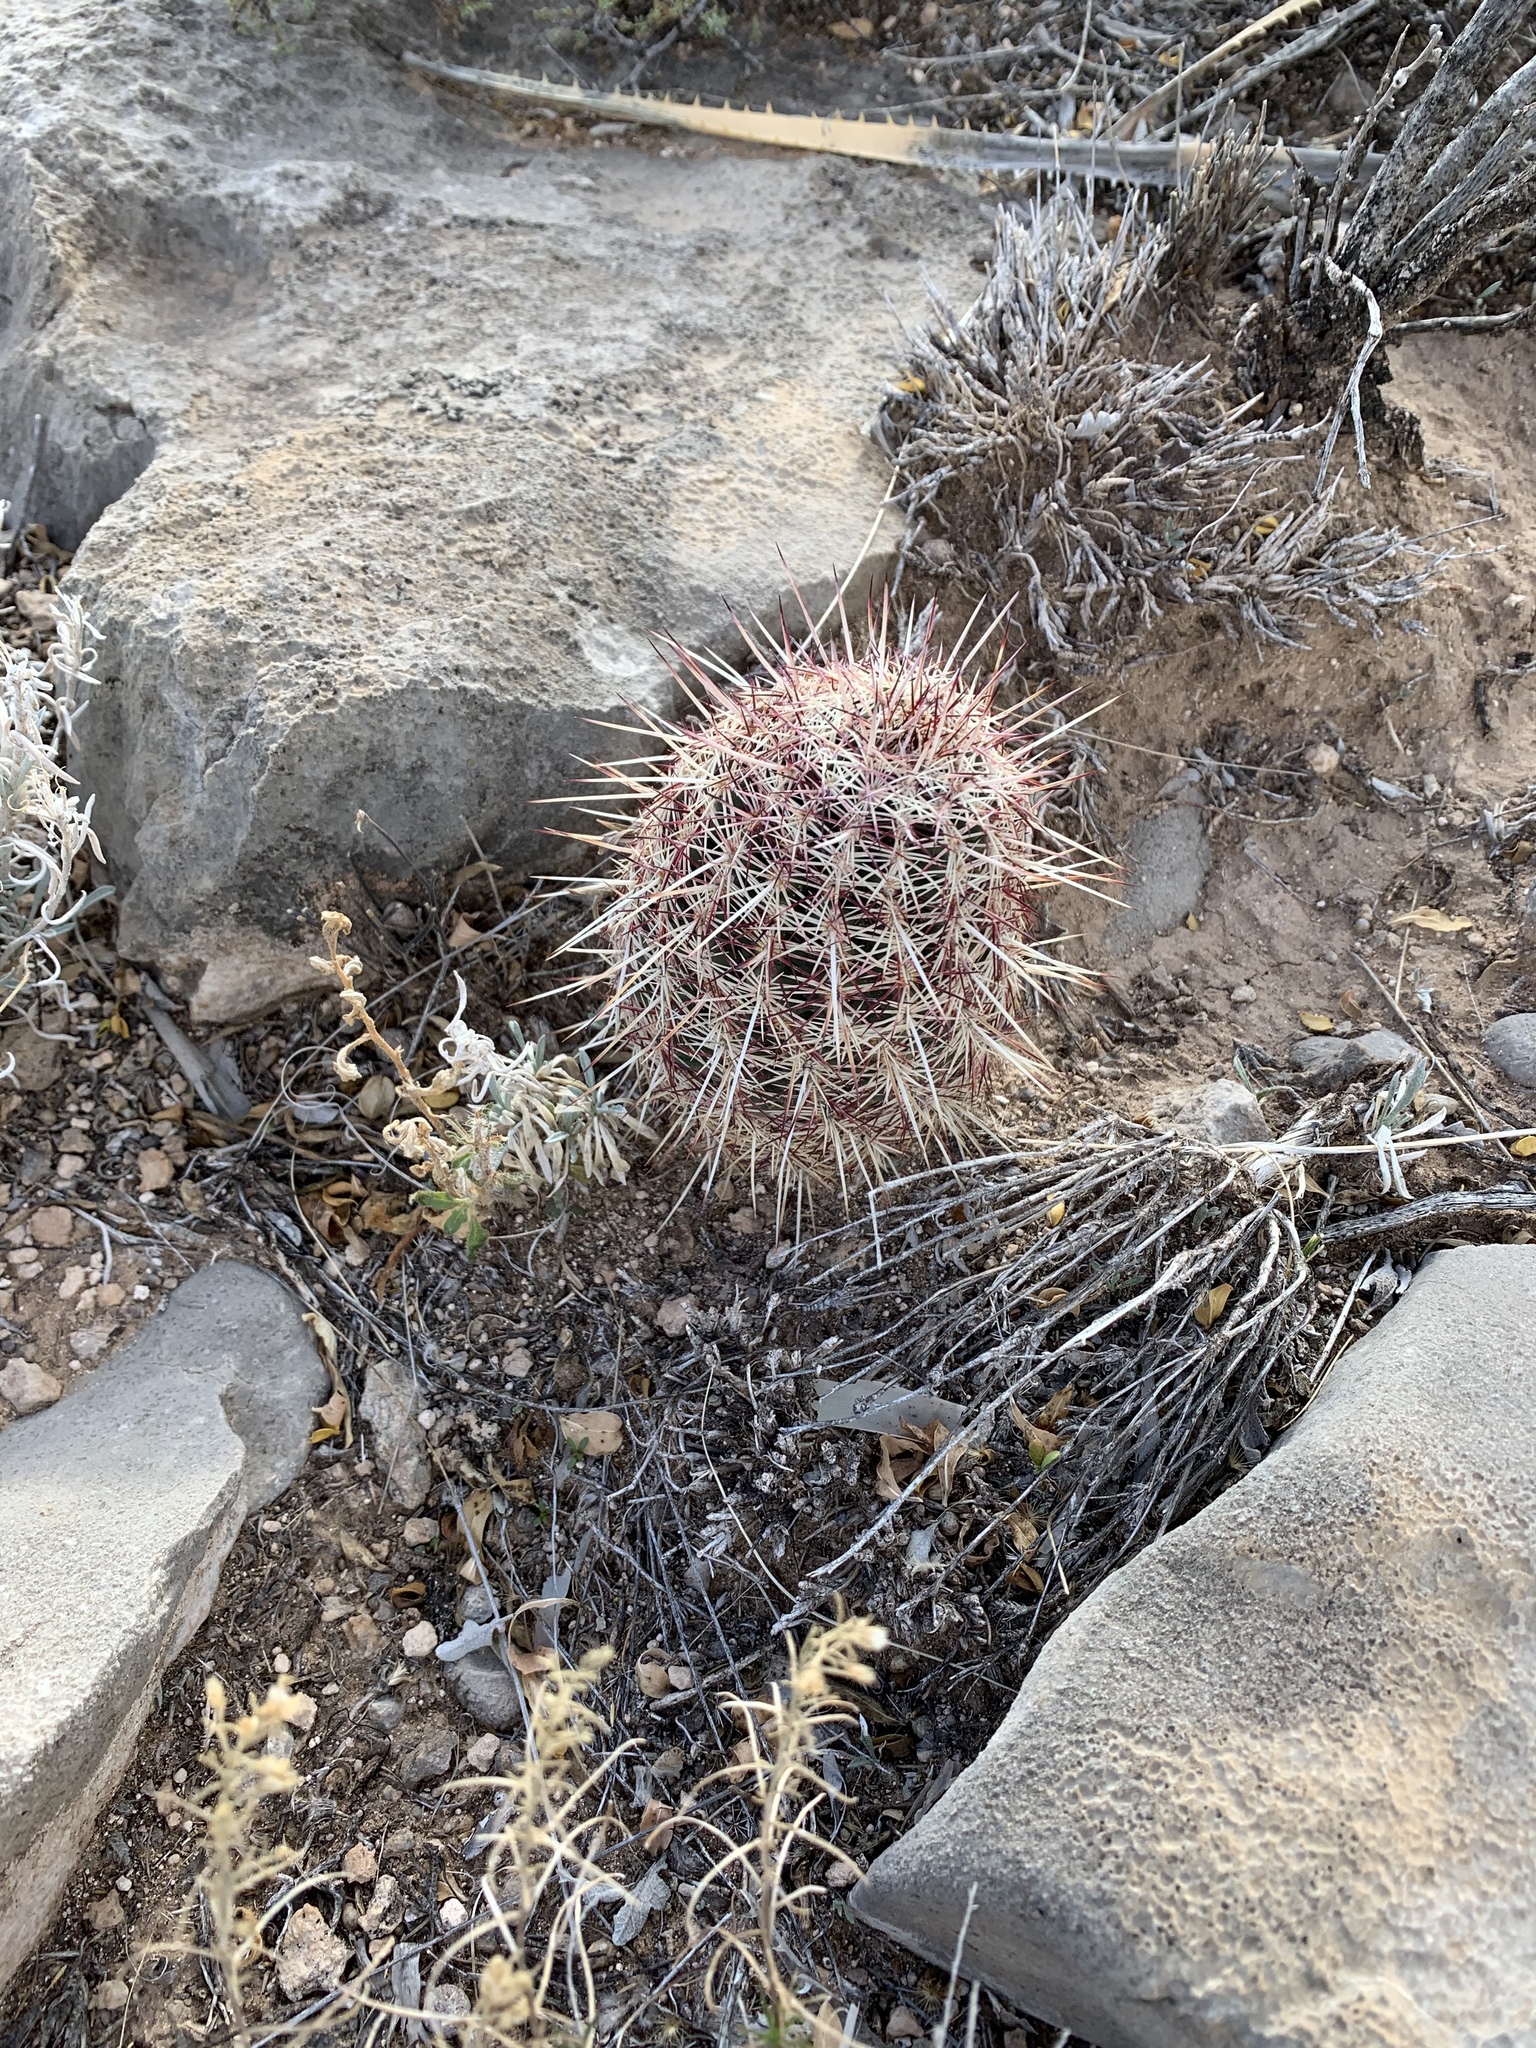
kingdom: Plantae
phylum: Tracheophyta
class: Magnoliopsida
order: Caryophyllales
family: Cactaceae
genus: Echinocereus
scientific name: Echinocereus viridiflorus
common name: Nylon hedgehog cactus
